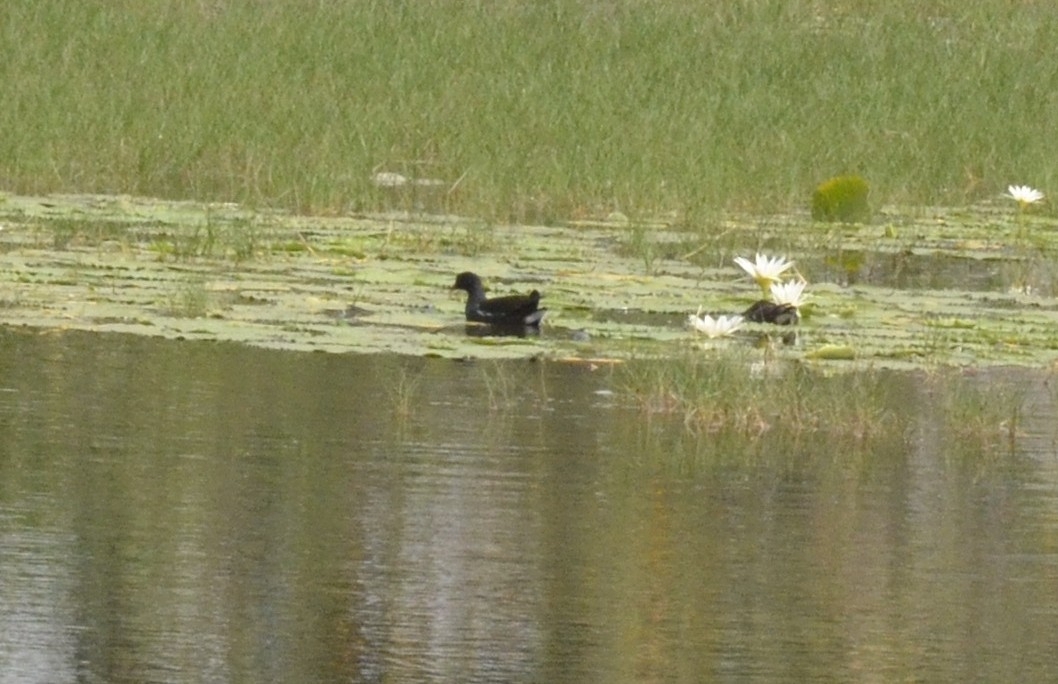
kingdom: Animalia
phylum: Chordata
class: Aves
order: Gruiformes
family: Rallidae
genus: Gallinula
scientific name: Gallinula chloropus
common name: Common moorhen
